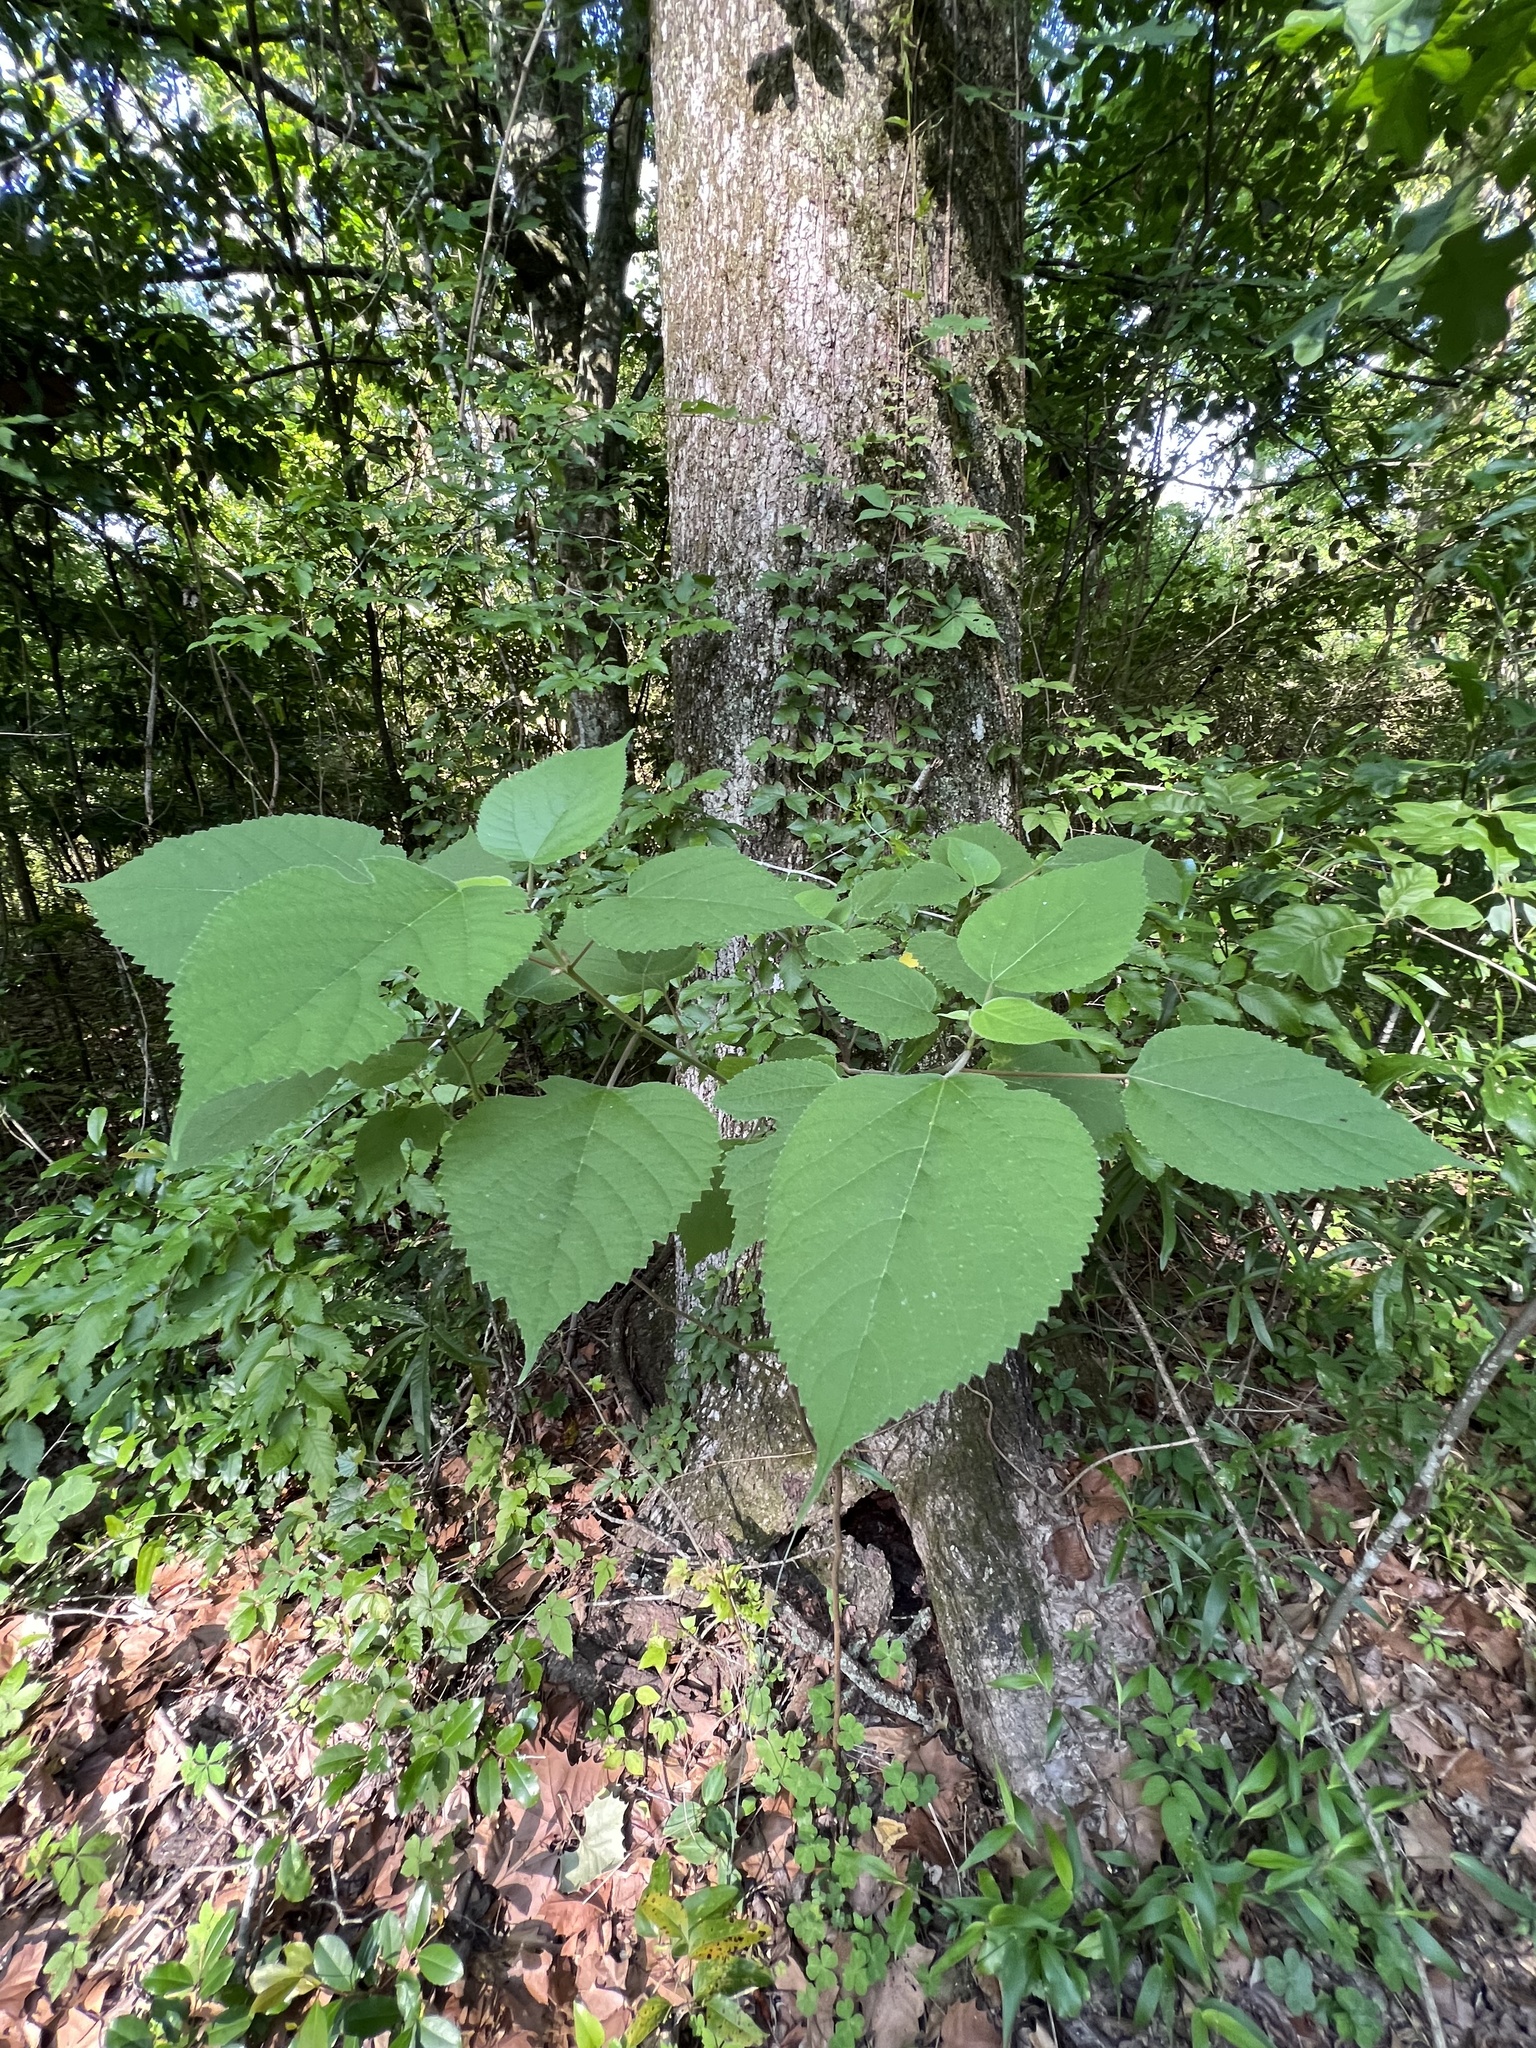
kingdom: Plantae
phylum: Tracheophyta
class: Magnoliopsida
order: Rosales
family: Moraceae
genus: Broussonetia
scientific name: Broussonetia papyrifera
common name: Paper mulberry
